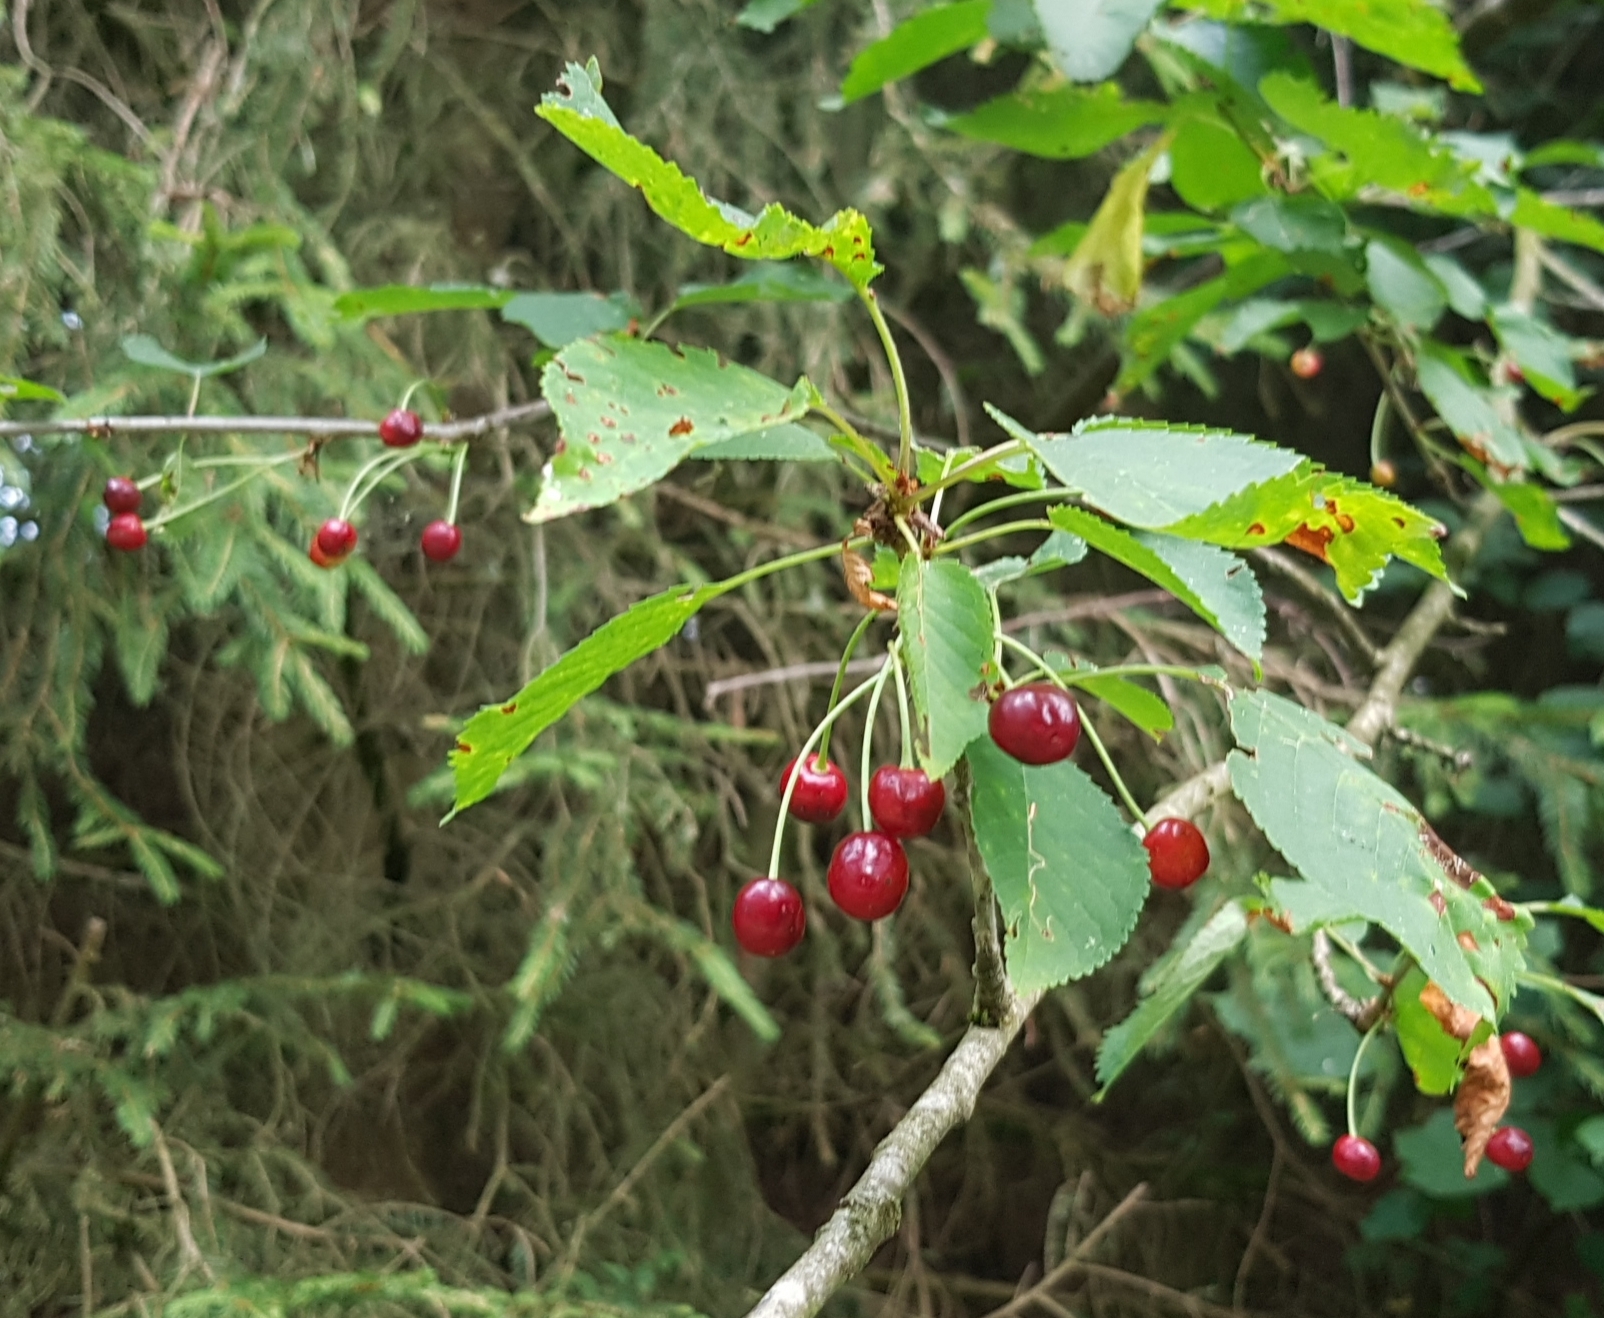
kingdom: Plantae
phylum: Tracheophyta
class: Magnoliopsida
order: Rosales
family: Rosaceae
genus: Prunus
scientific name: Prunus avium
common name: Sweet cherry
